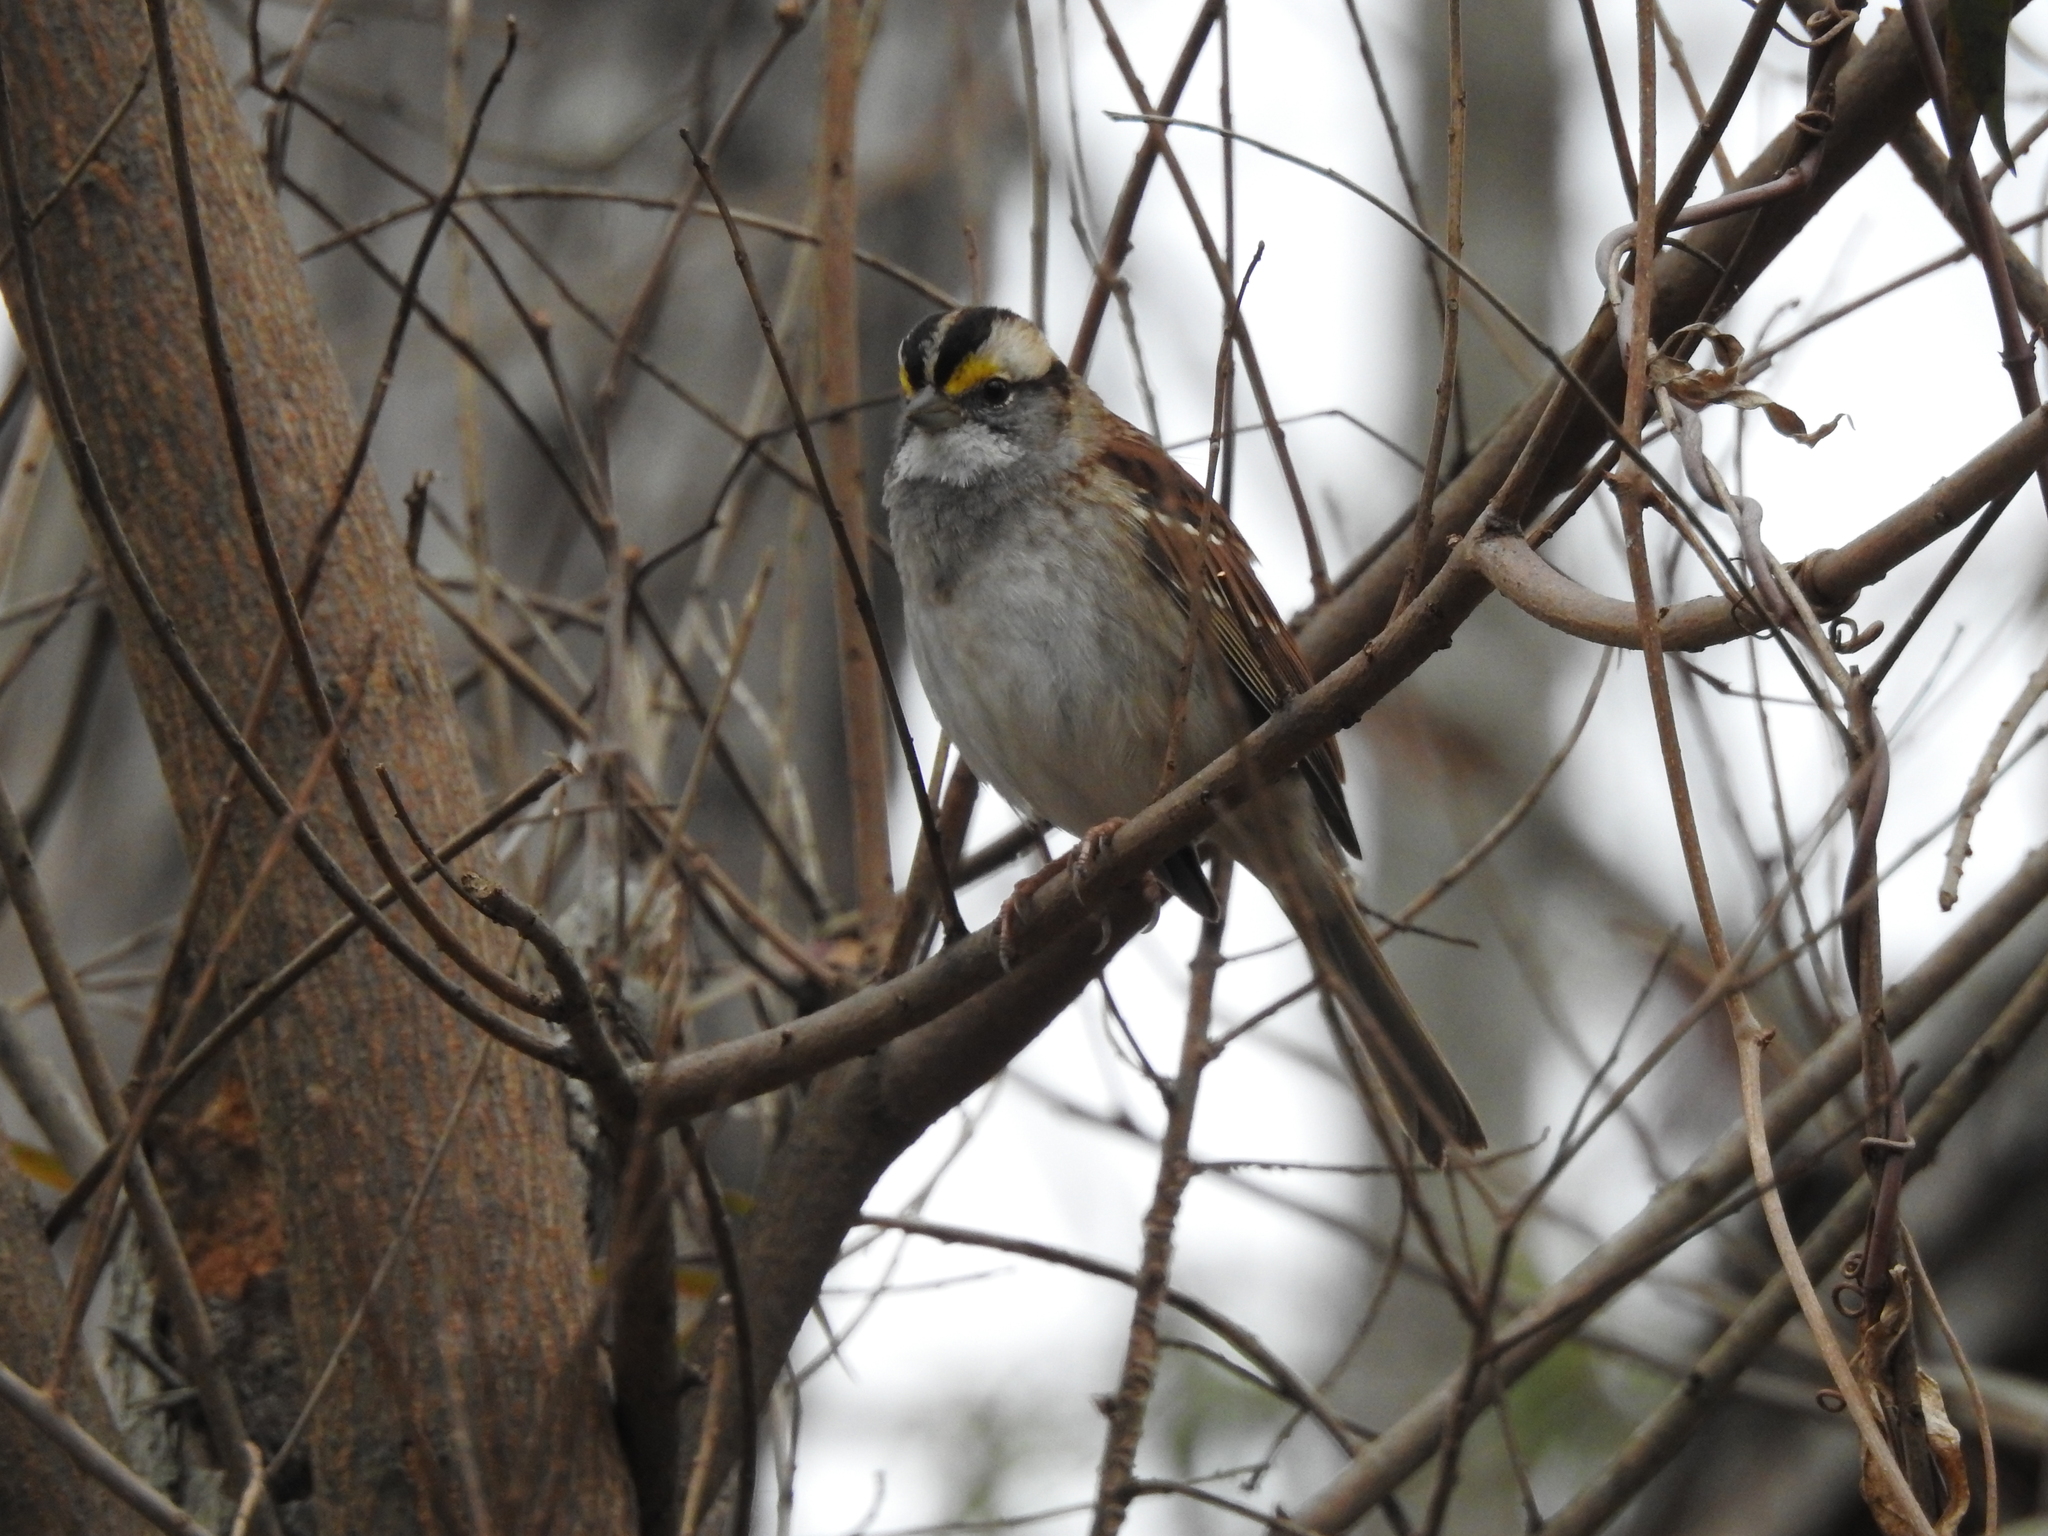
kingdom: Animalia
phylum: Chordata
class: Aves
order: Passeriformes
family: Passerellidae
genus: Zonotrichia
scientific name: Zonotrichia albicollis
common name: White-throated sparrow
